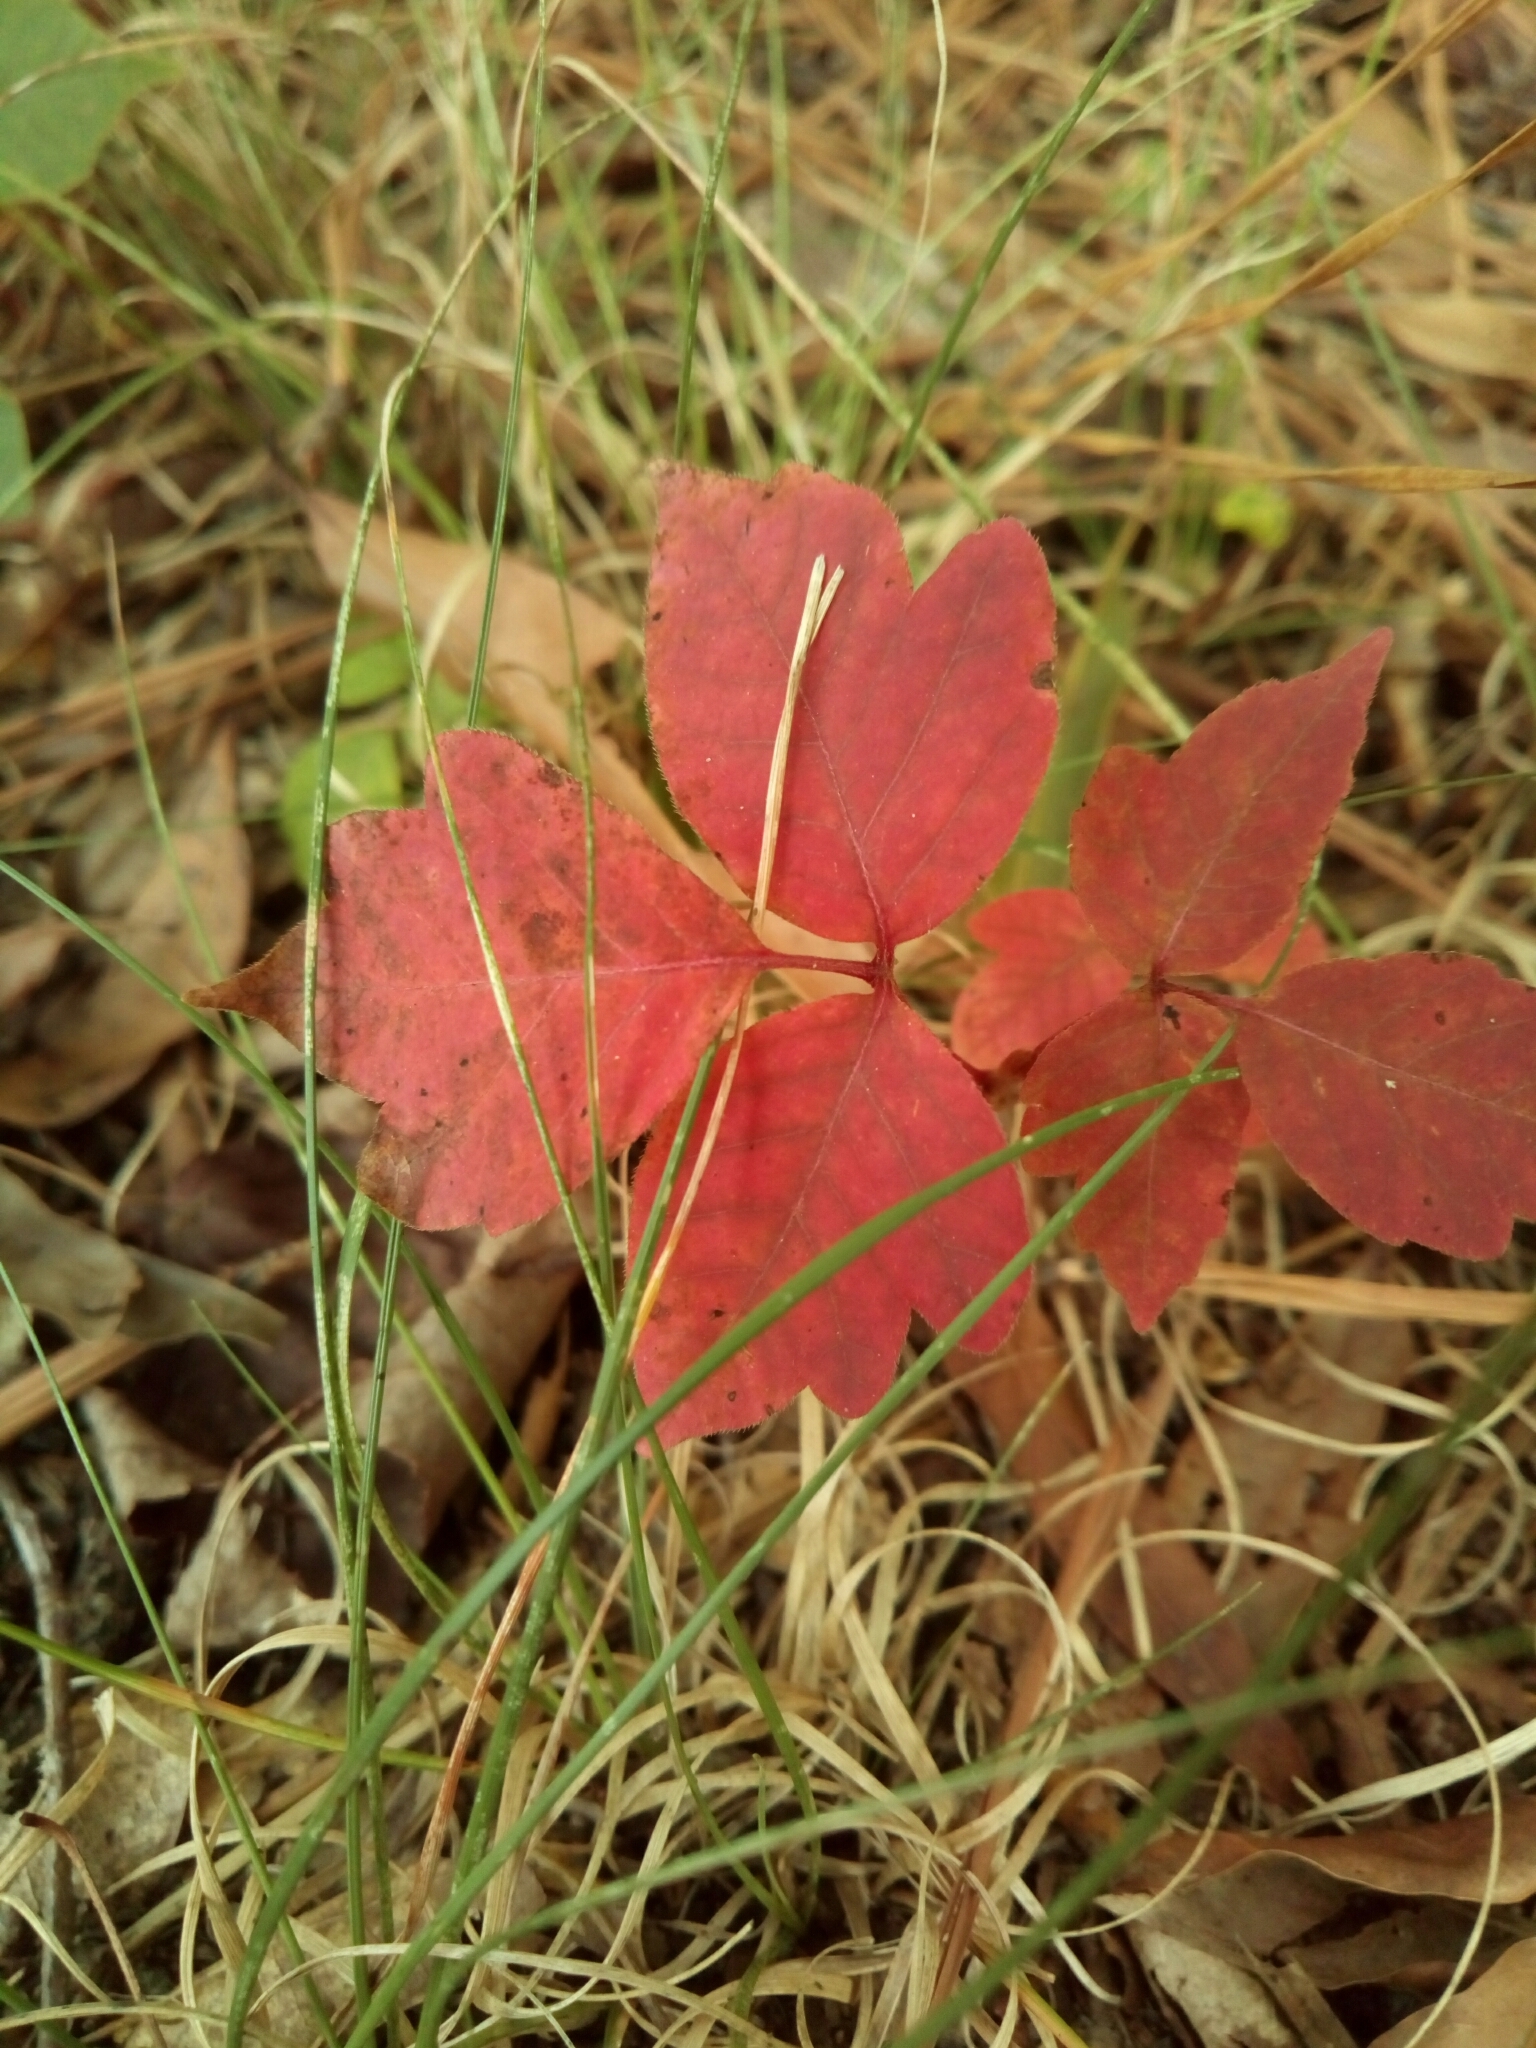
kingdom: Plantae
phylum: Tracheophyta
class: Magnoliopsida
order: Sapindales
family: Anacardiaceae
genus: Toxicodendron
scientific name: Toxicodendron radicans
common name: Poison ivy
